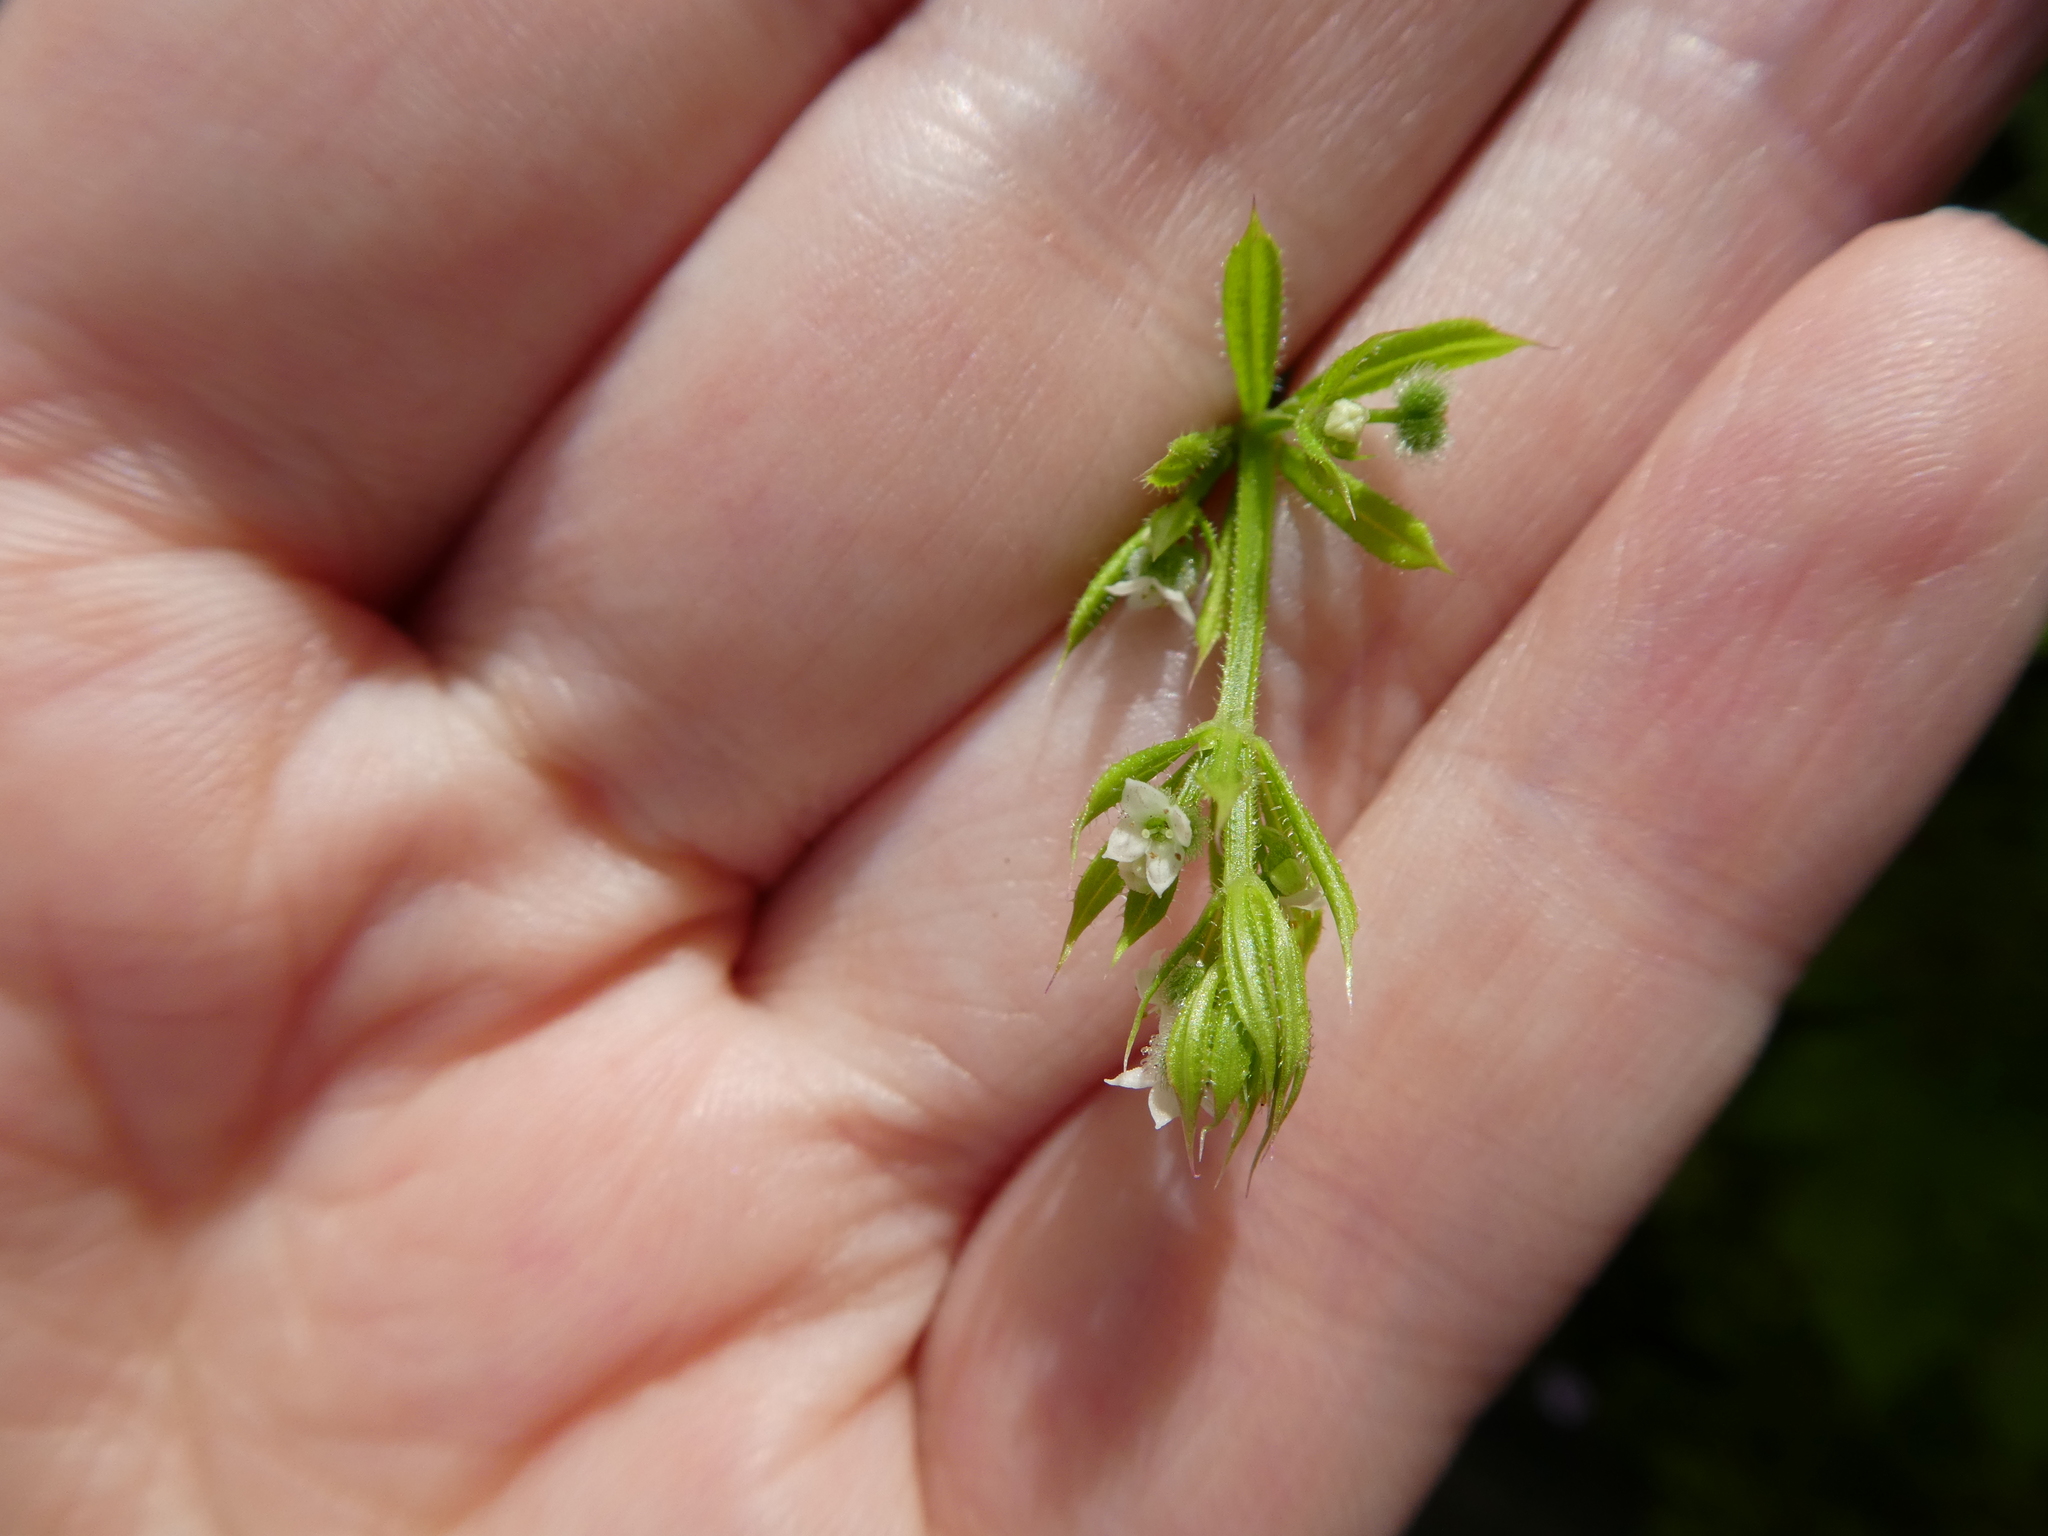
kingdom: Plantae
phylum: Tracheophyta
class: Magnoliopsida
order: Gentianales
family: Rubiaceae
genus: Galium
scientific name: Galium aparine
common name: Cleavers
